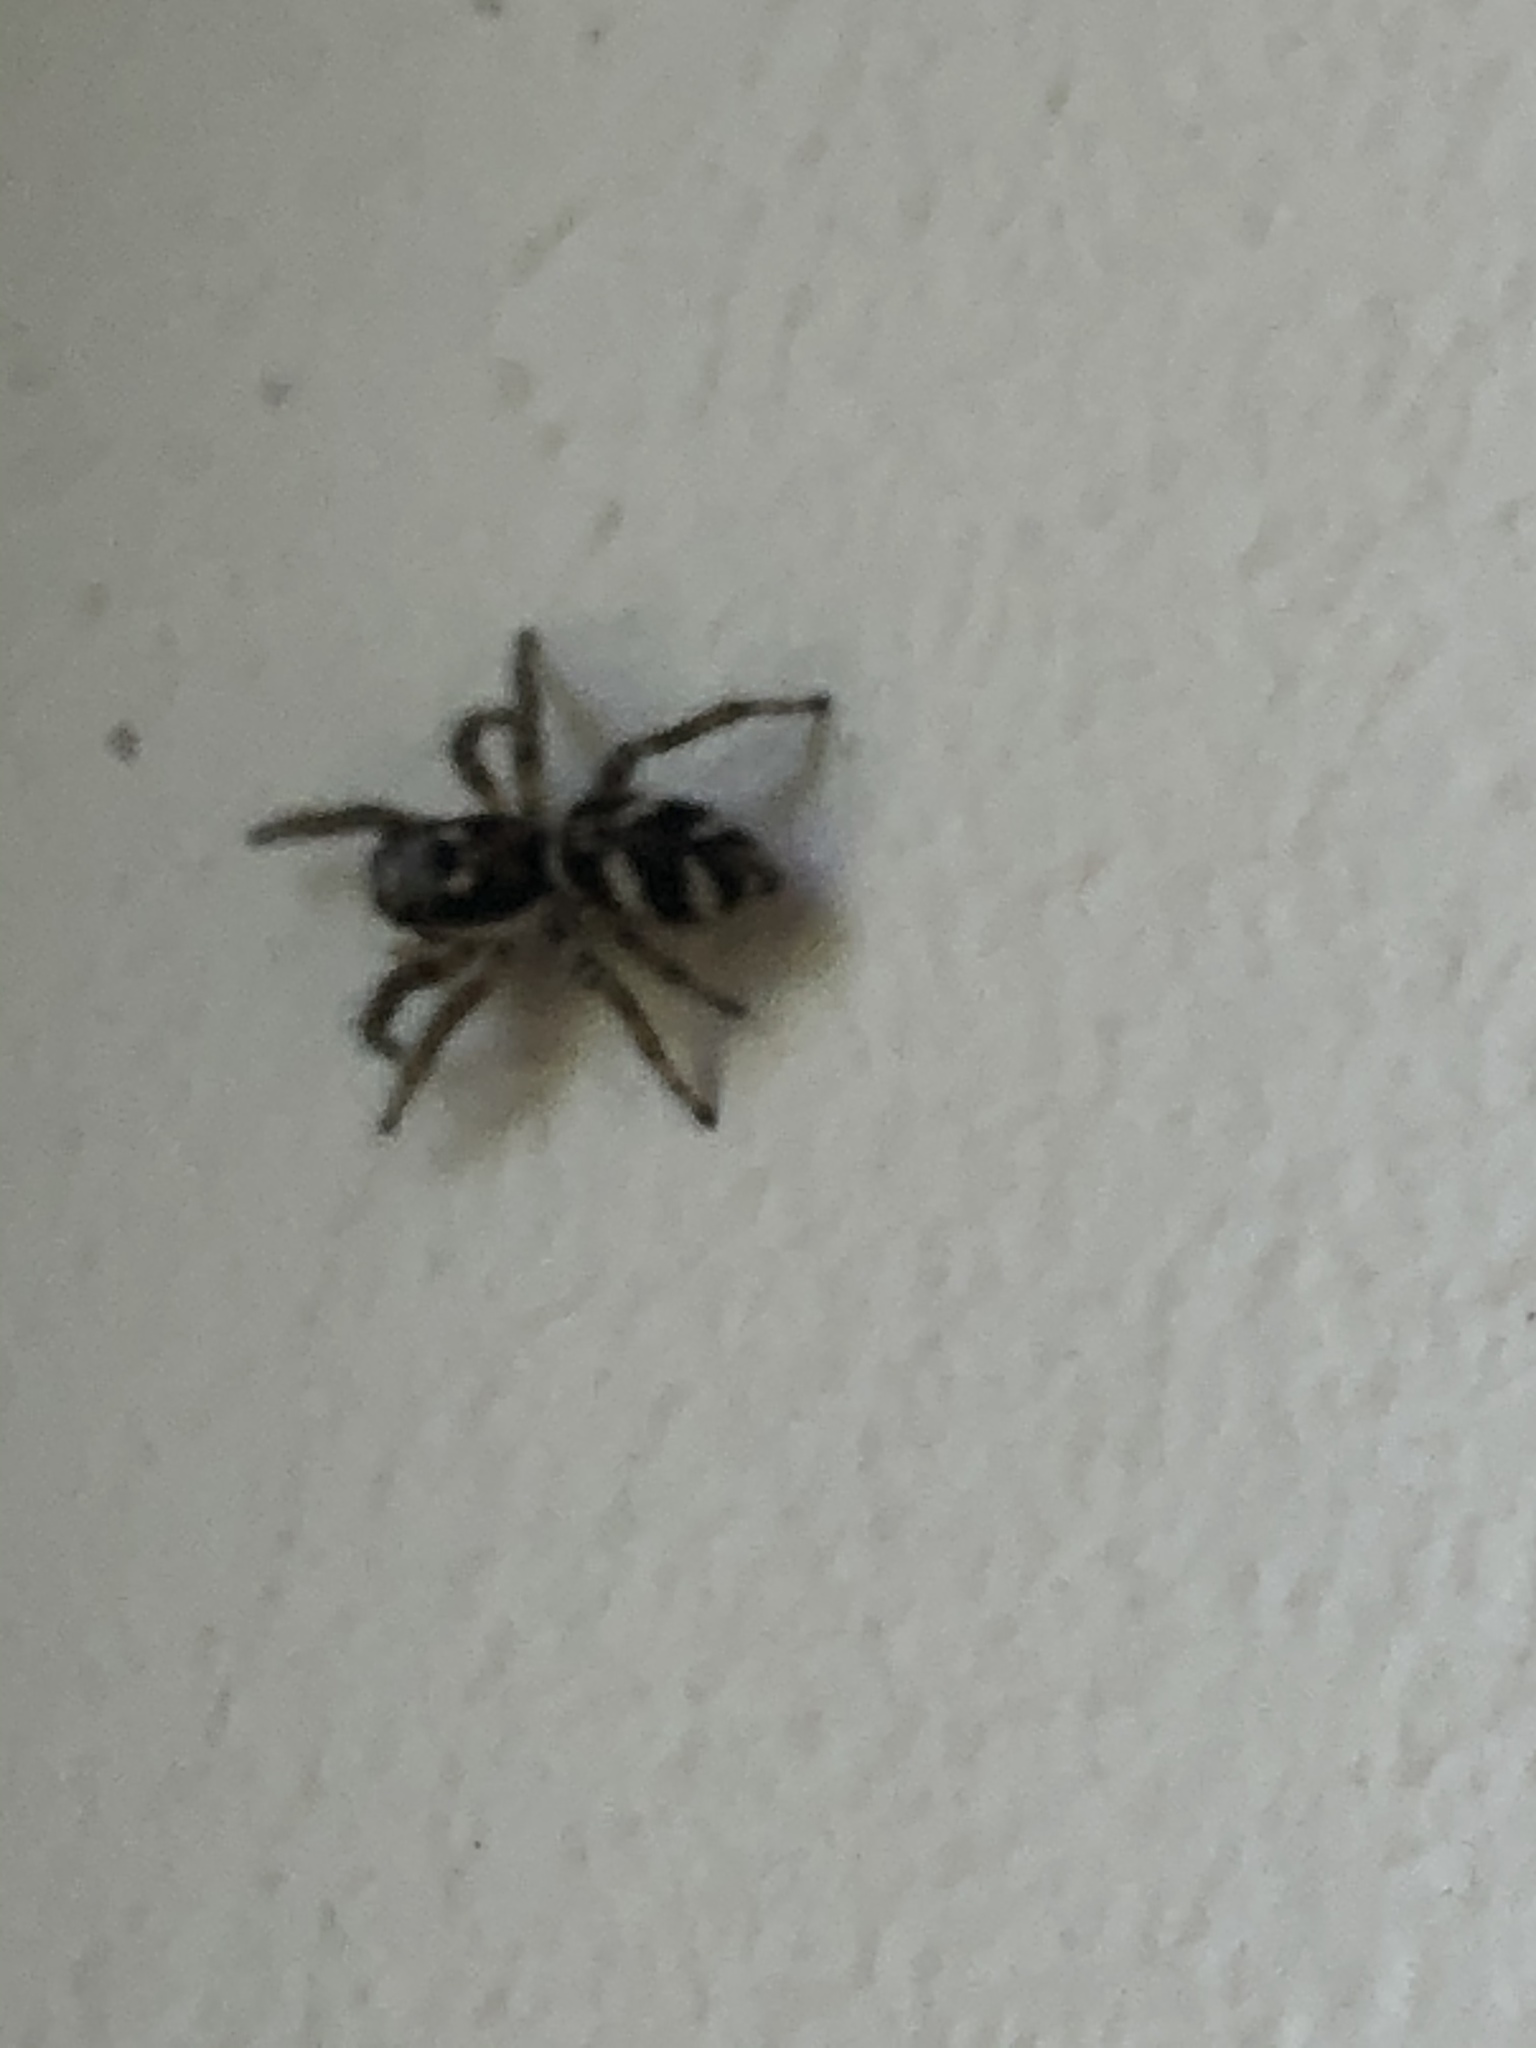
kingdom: Animalia
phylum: Arthropoda
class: Arachnida
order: Araneae
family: Salticidae
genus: Salticus
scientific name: Salticus scenicus
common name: Zebra jumper
